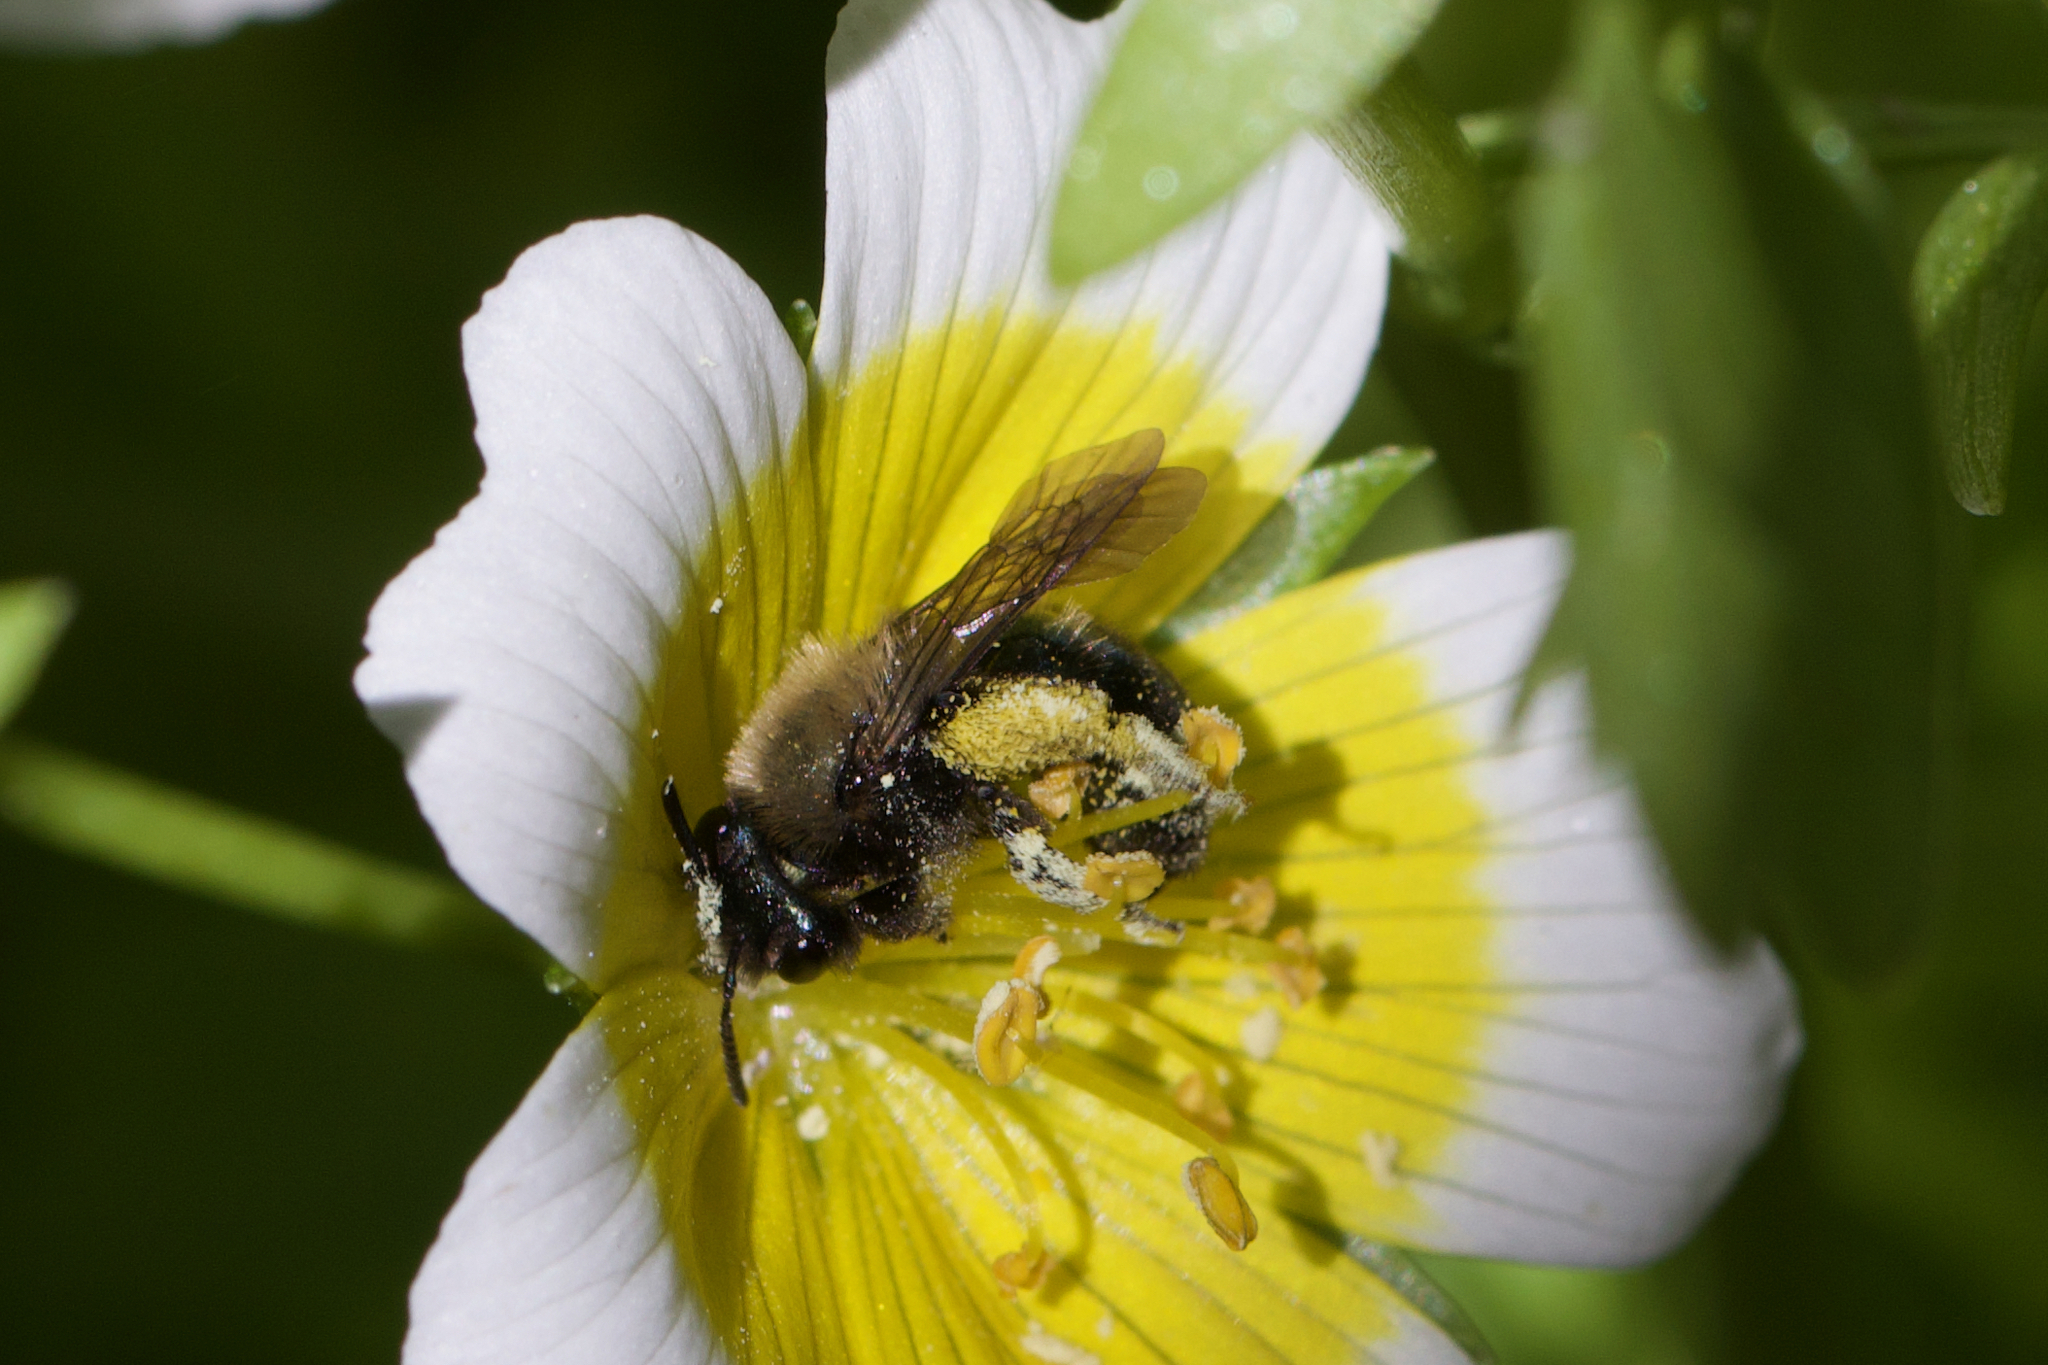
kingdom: Animalia
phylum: Arthropoda
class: Insecta
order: Hymenoptera
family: Andrenidae
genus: Andrena
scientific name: Andrena nigrocaerulea
